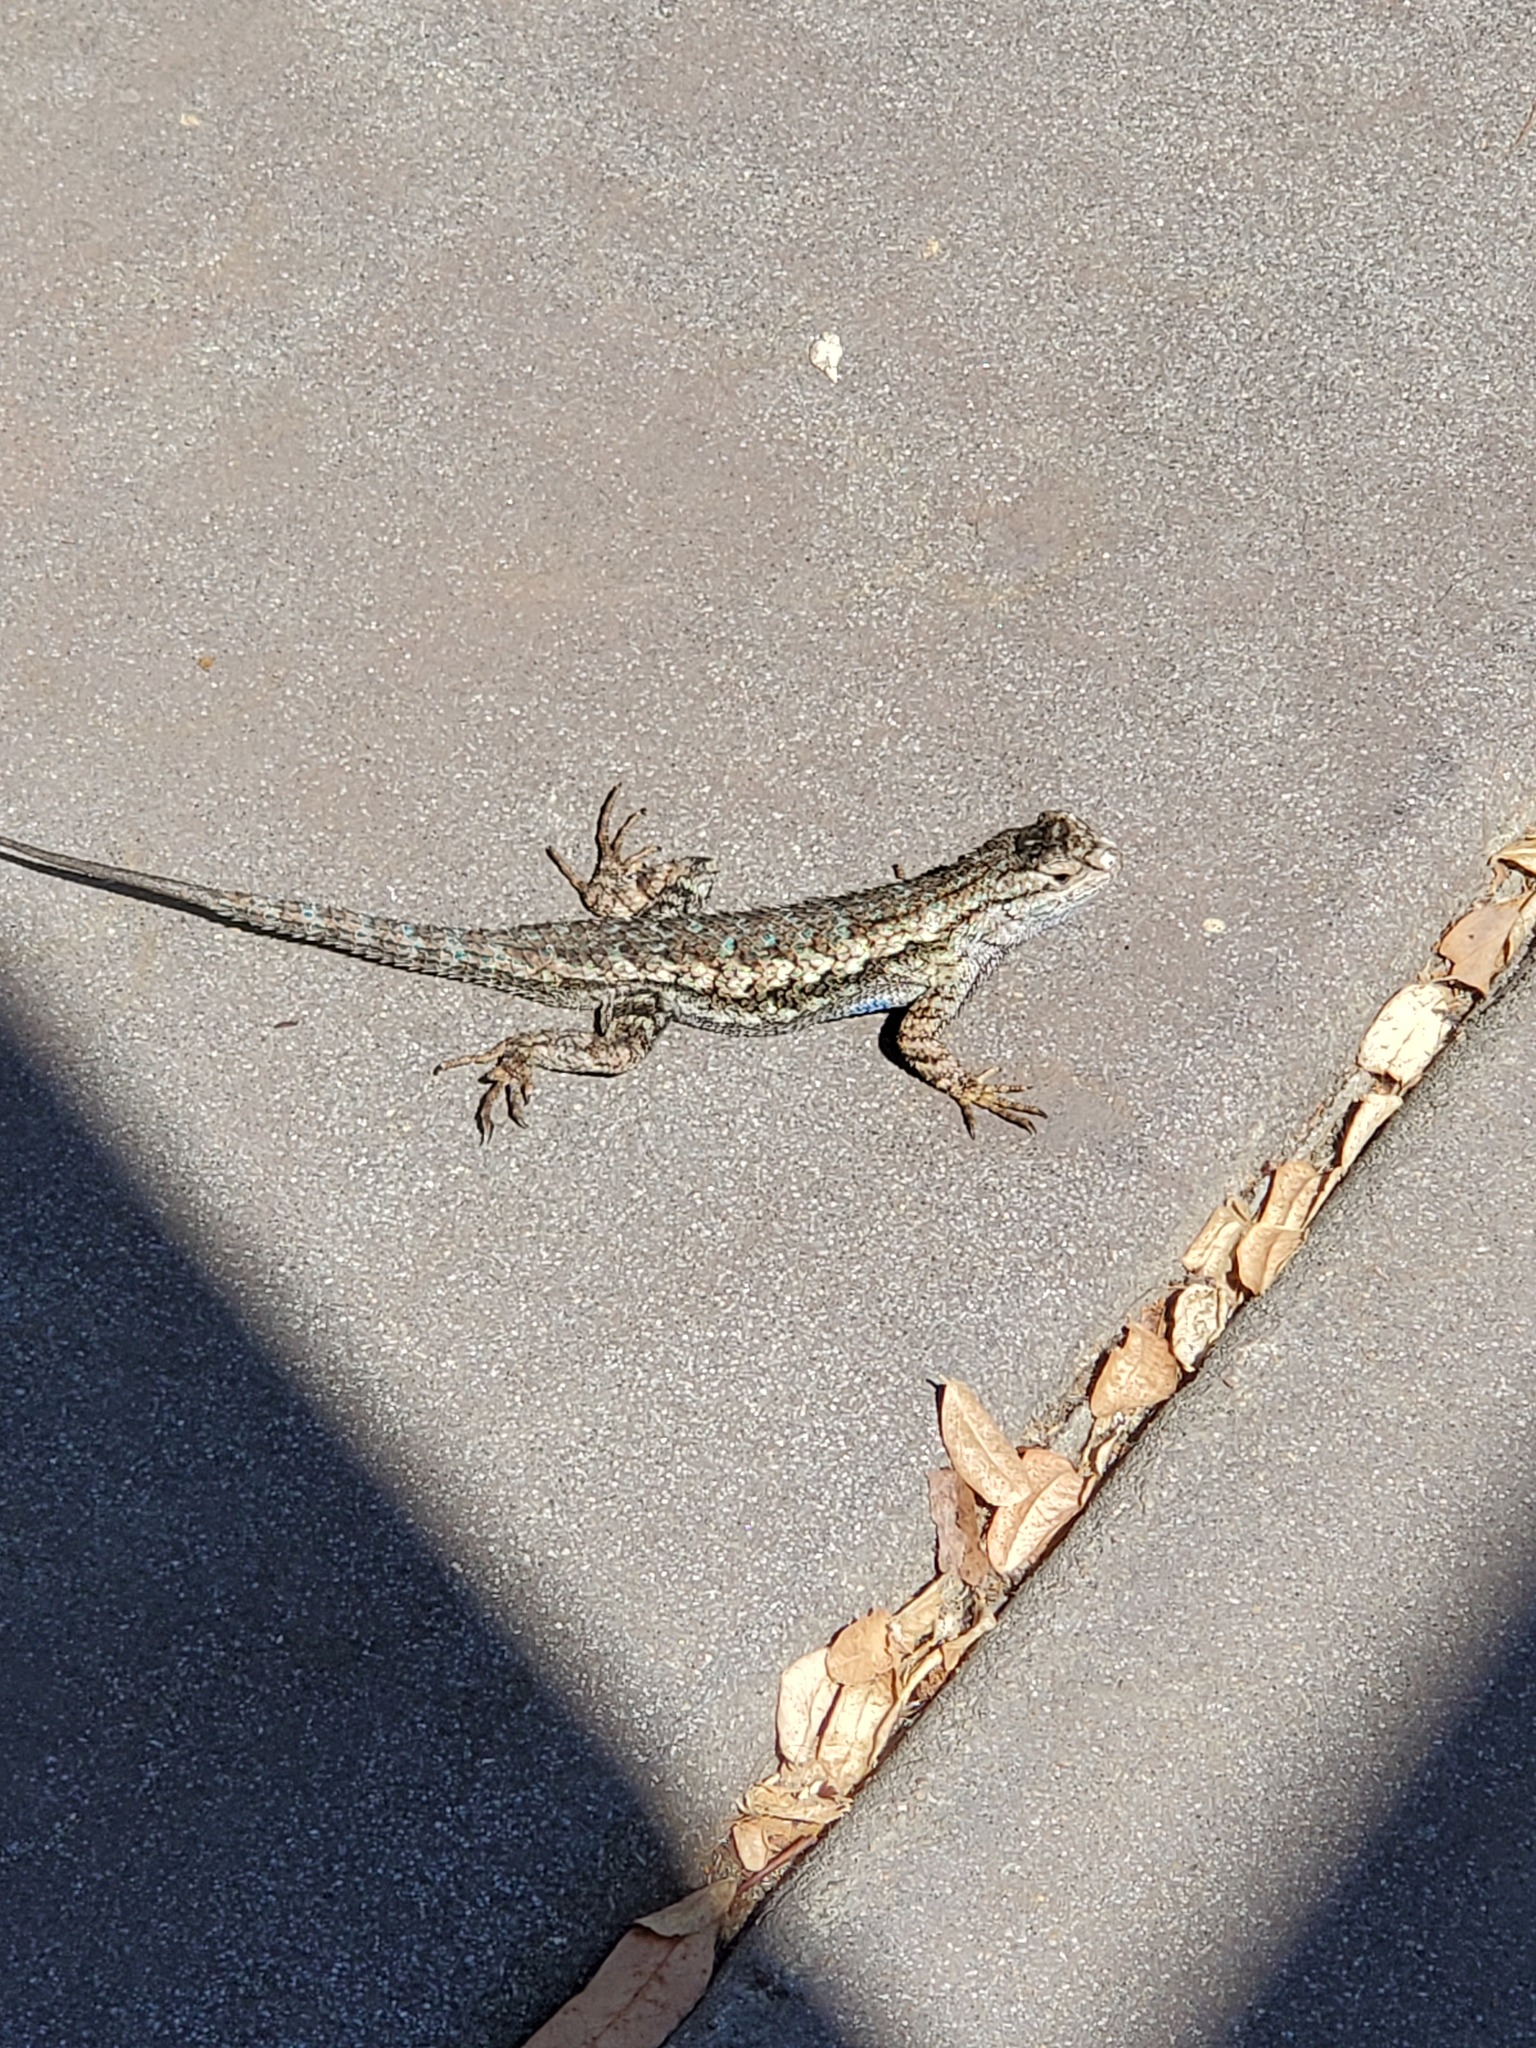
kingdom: Animalia
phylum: Chordata
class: Squamata
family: Phrynosomatidae
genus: Sceloporus
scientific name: Sceloporus occidentalis
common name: Western fence lizard
